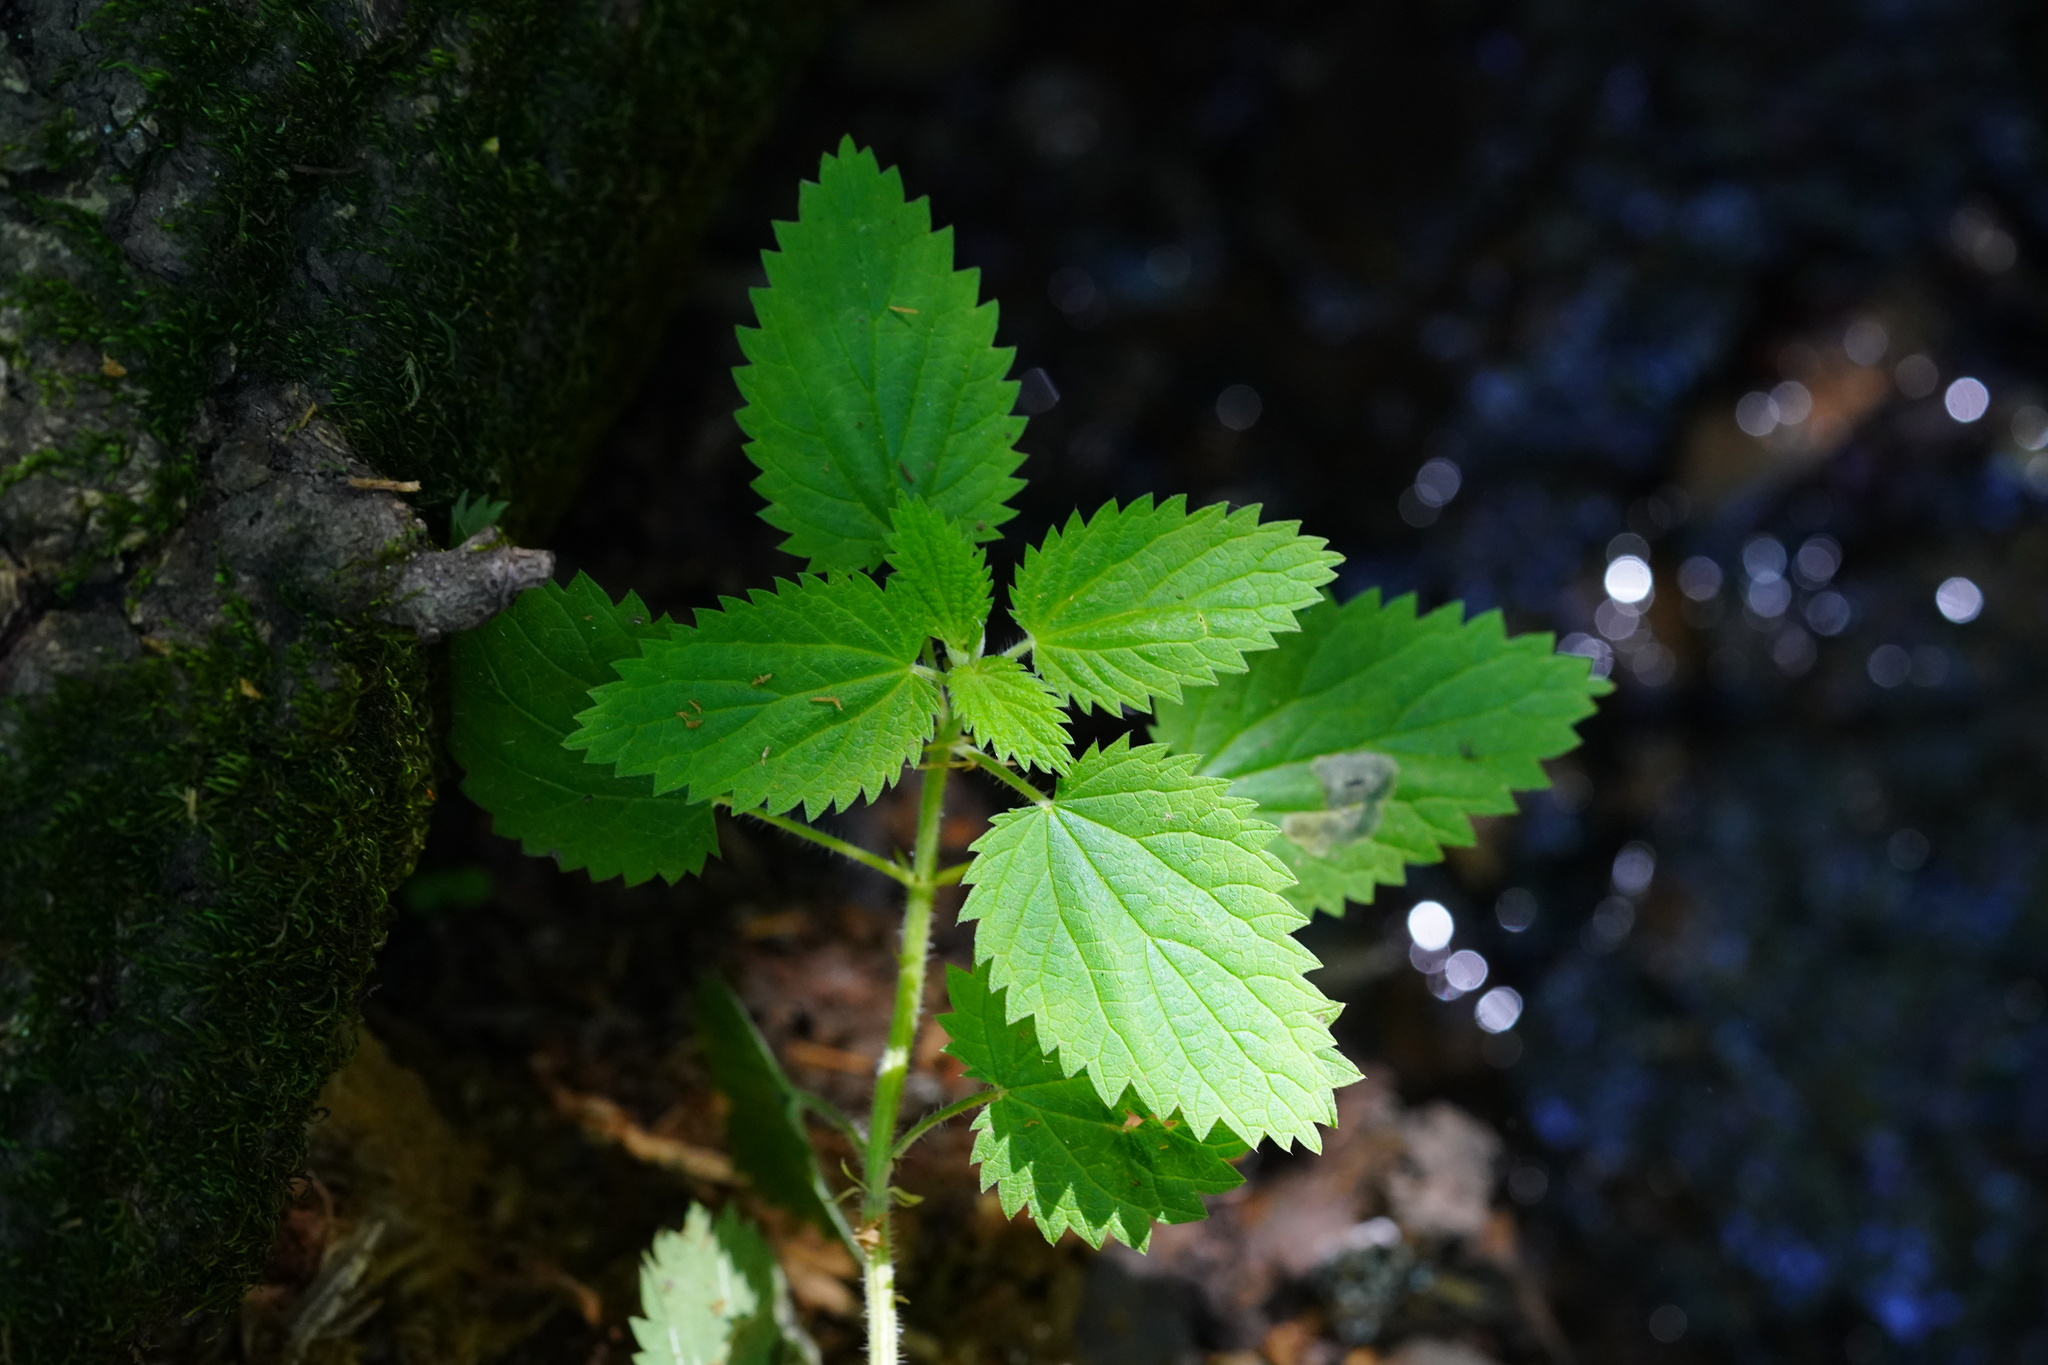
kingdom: Plantae
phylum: Tracheophyta
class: Magnoliopsida
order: Rosales
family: Urticaceae
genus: Urtica
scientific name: Urtica gracilis
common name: Slender stinging nettle
